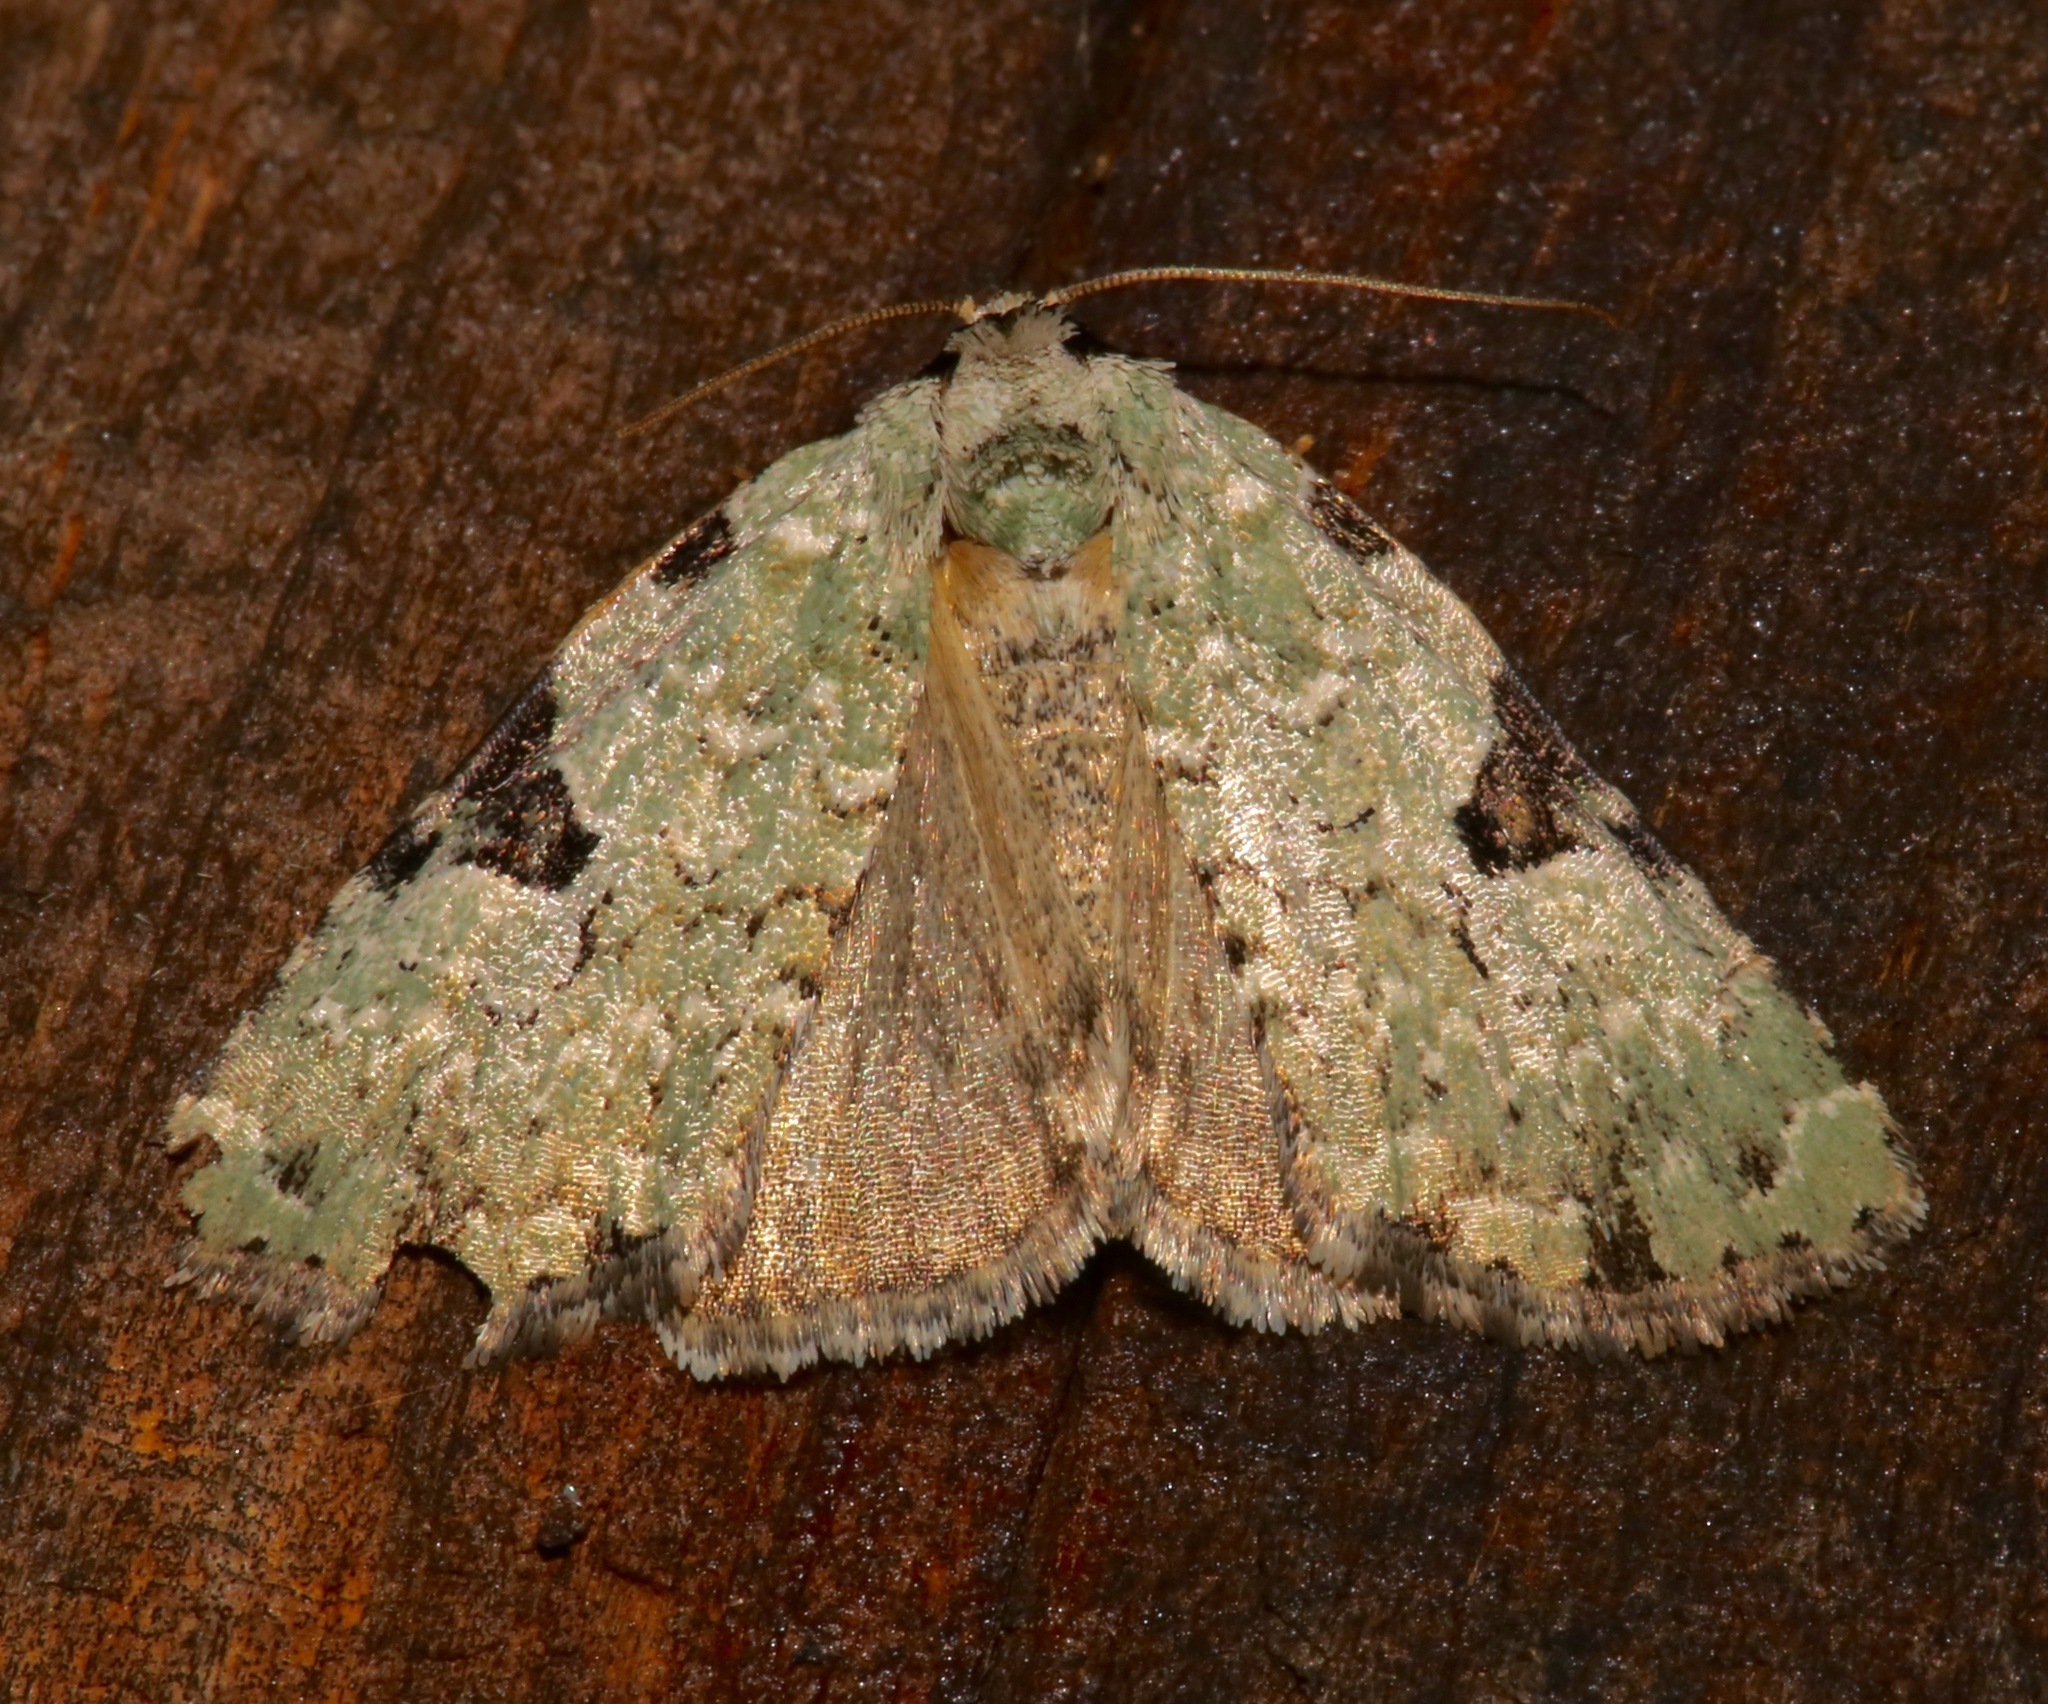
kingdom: Animalia
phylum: Arthropoda
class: Insecta
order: Lepidoptera
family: Noctuidae
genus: Leuconycta
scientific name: Leuconycta diphteroides
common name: Green leuconycta moth
